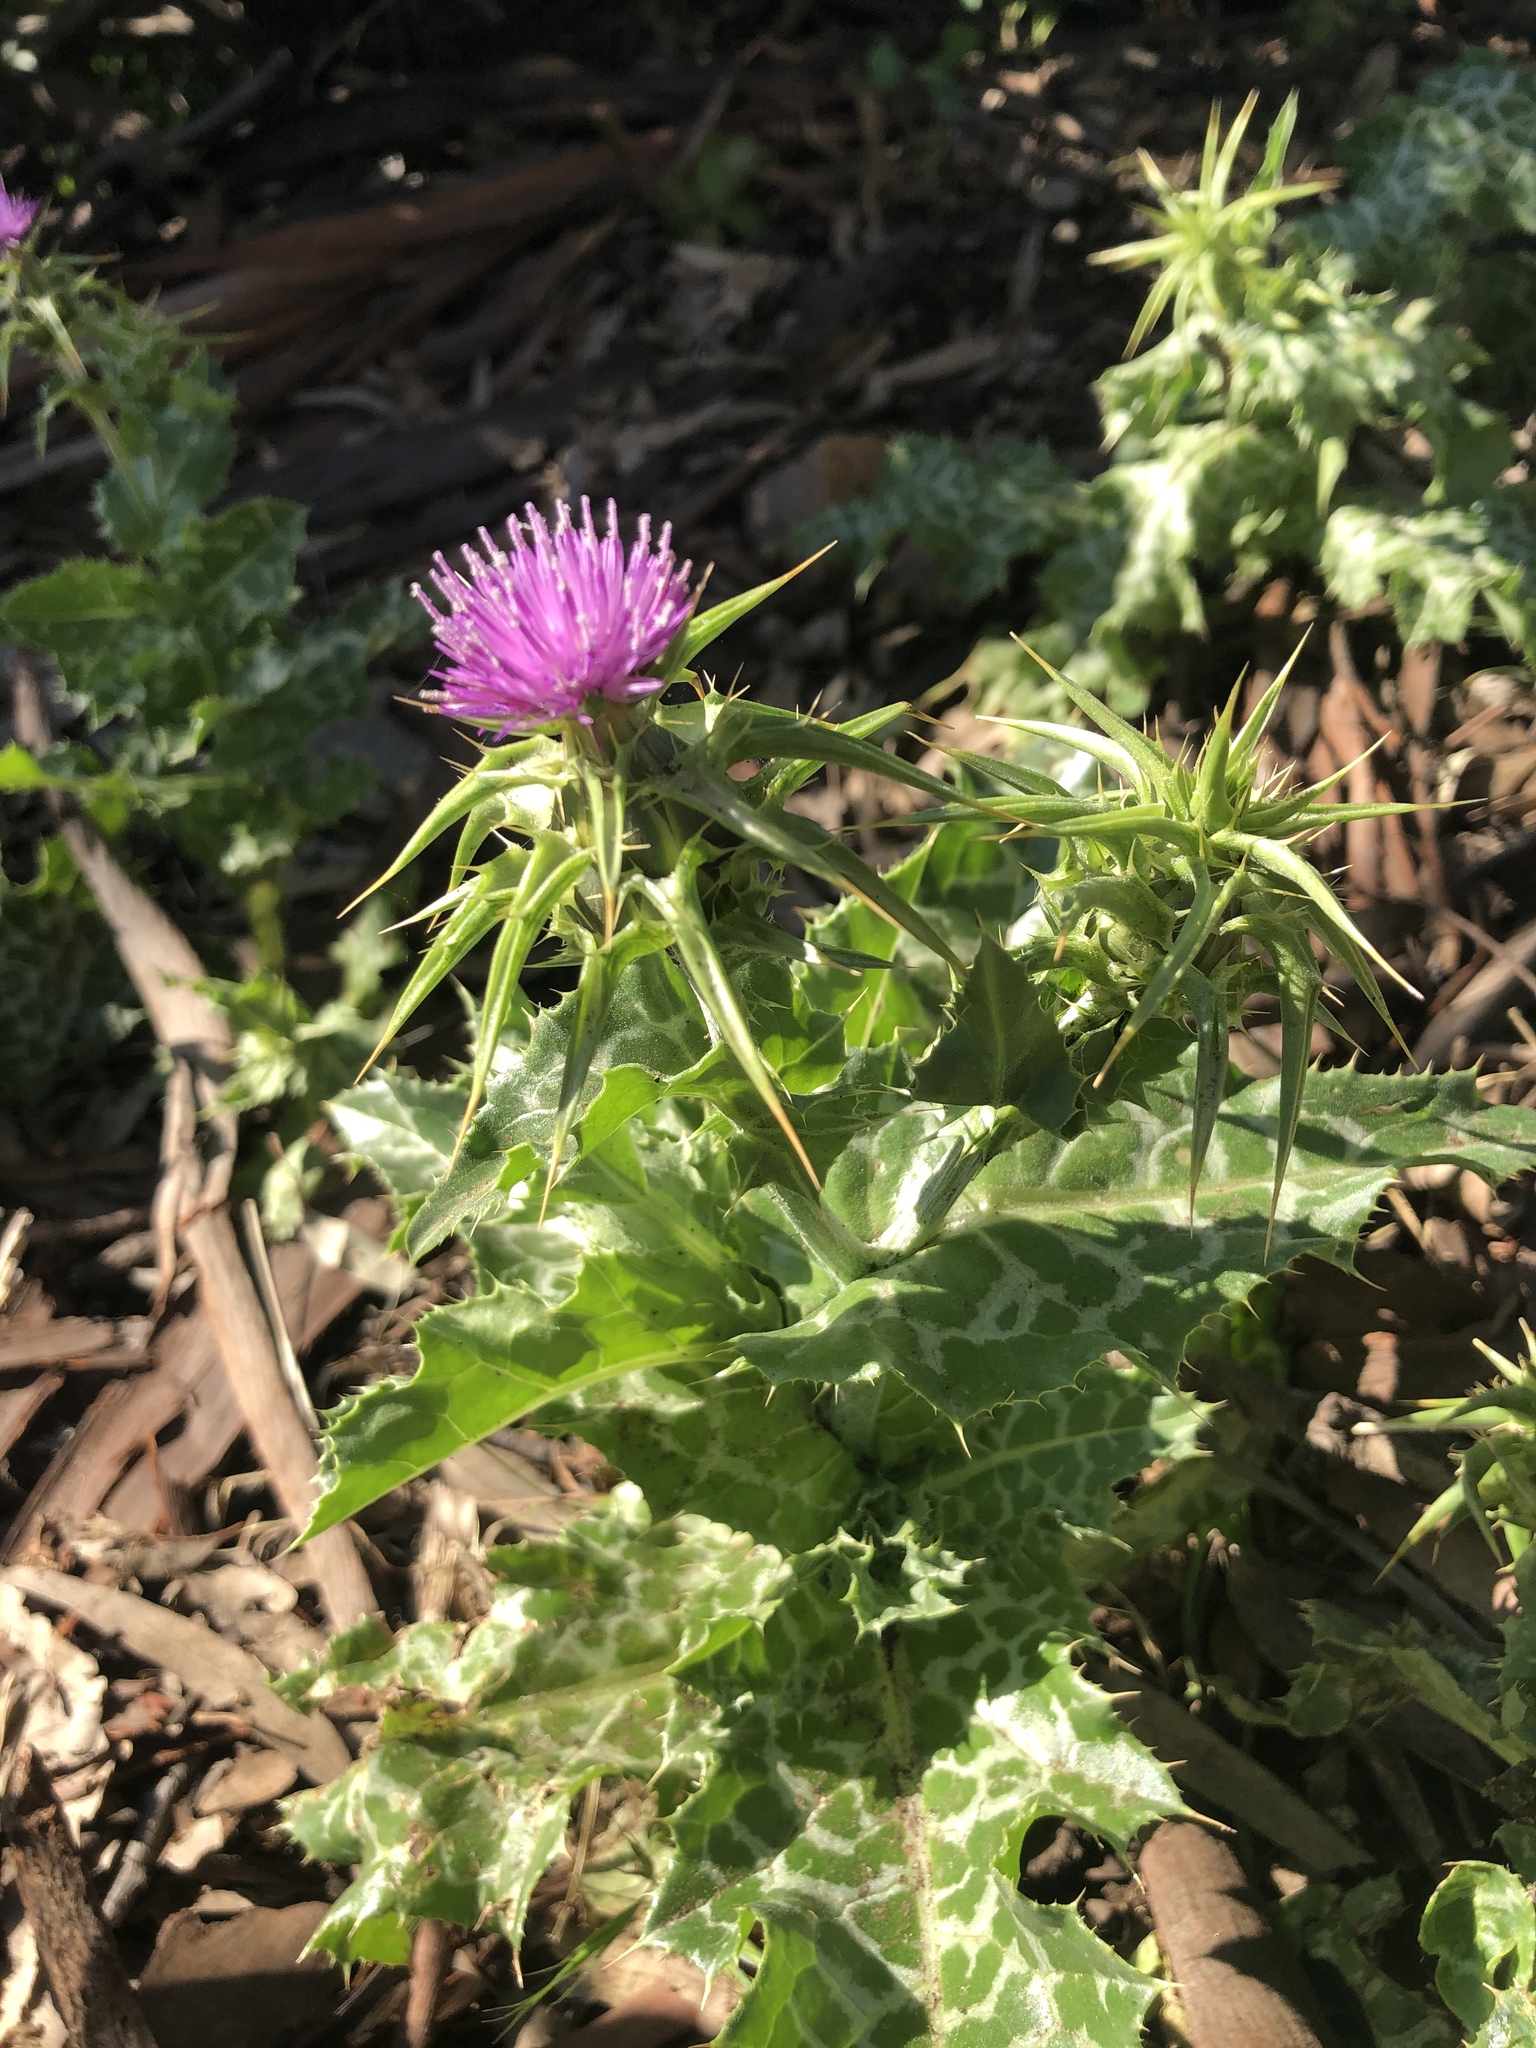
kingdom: Plantae
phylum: Tracheophyta
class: Magnoliopsida
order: Asterales
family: Asteraceae
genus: Silybum
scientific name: Silybum marianum
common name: Milk thistle
